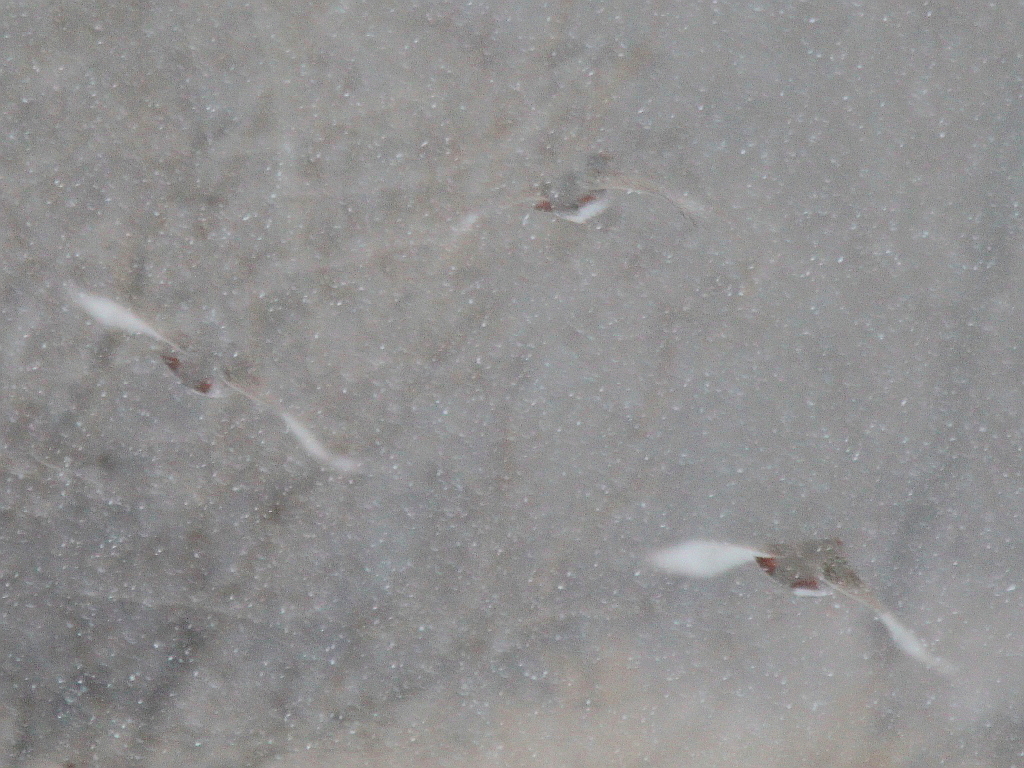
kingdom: Animalia
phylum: Chordata
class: Aves
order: Galliformes
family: Phasianidae
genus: Perdix
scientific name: Perdix perdix
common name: Grey partridge
